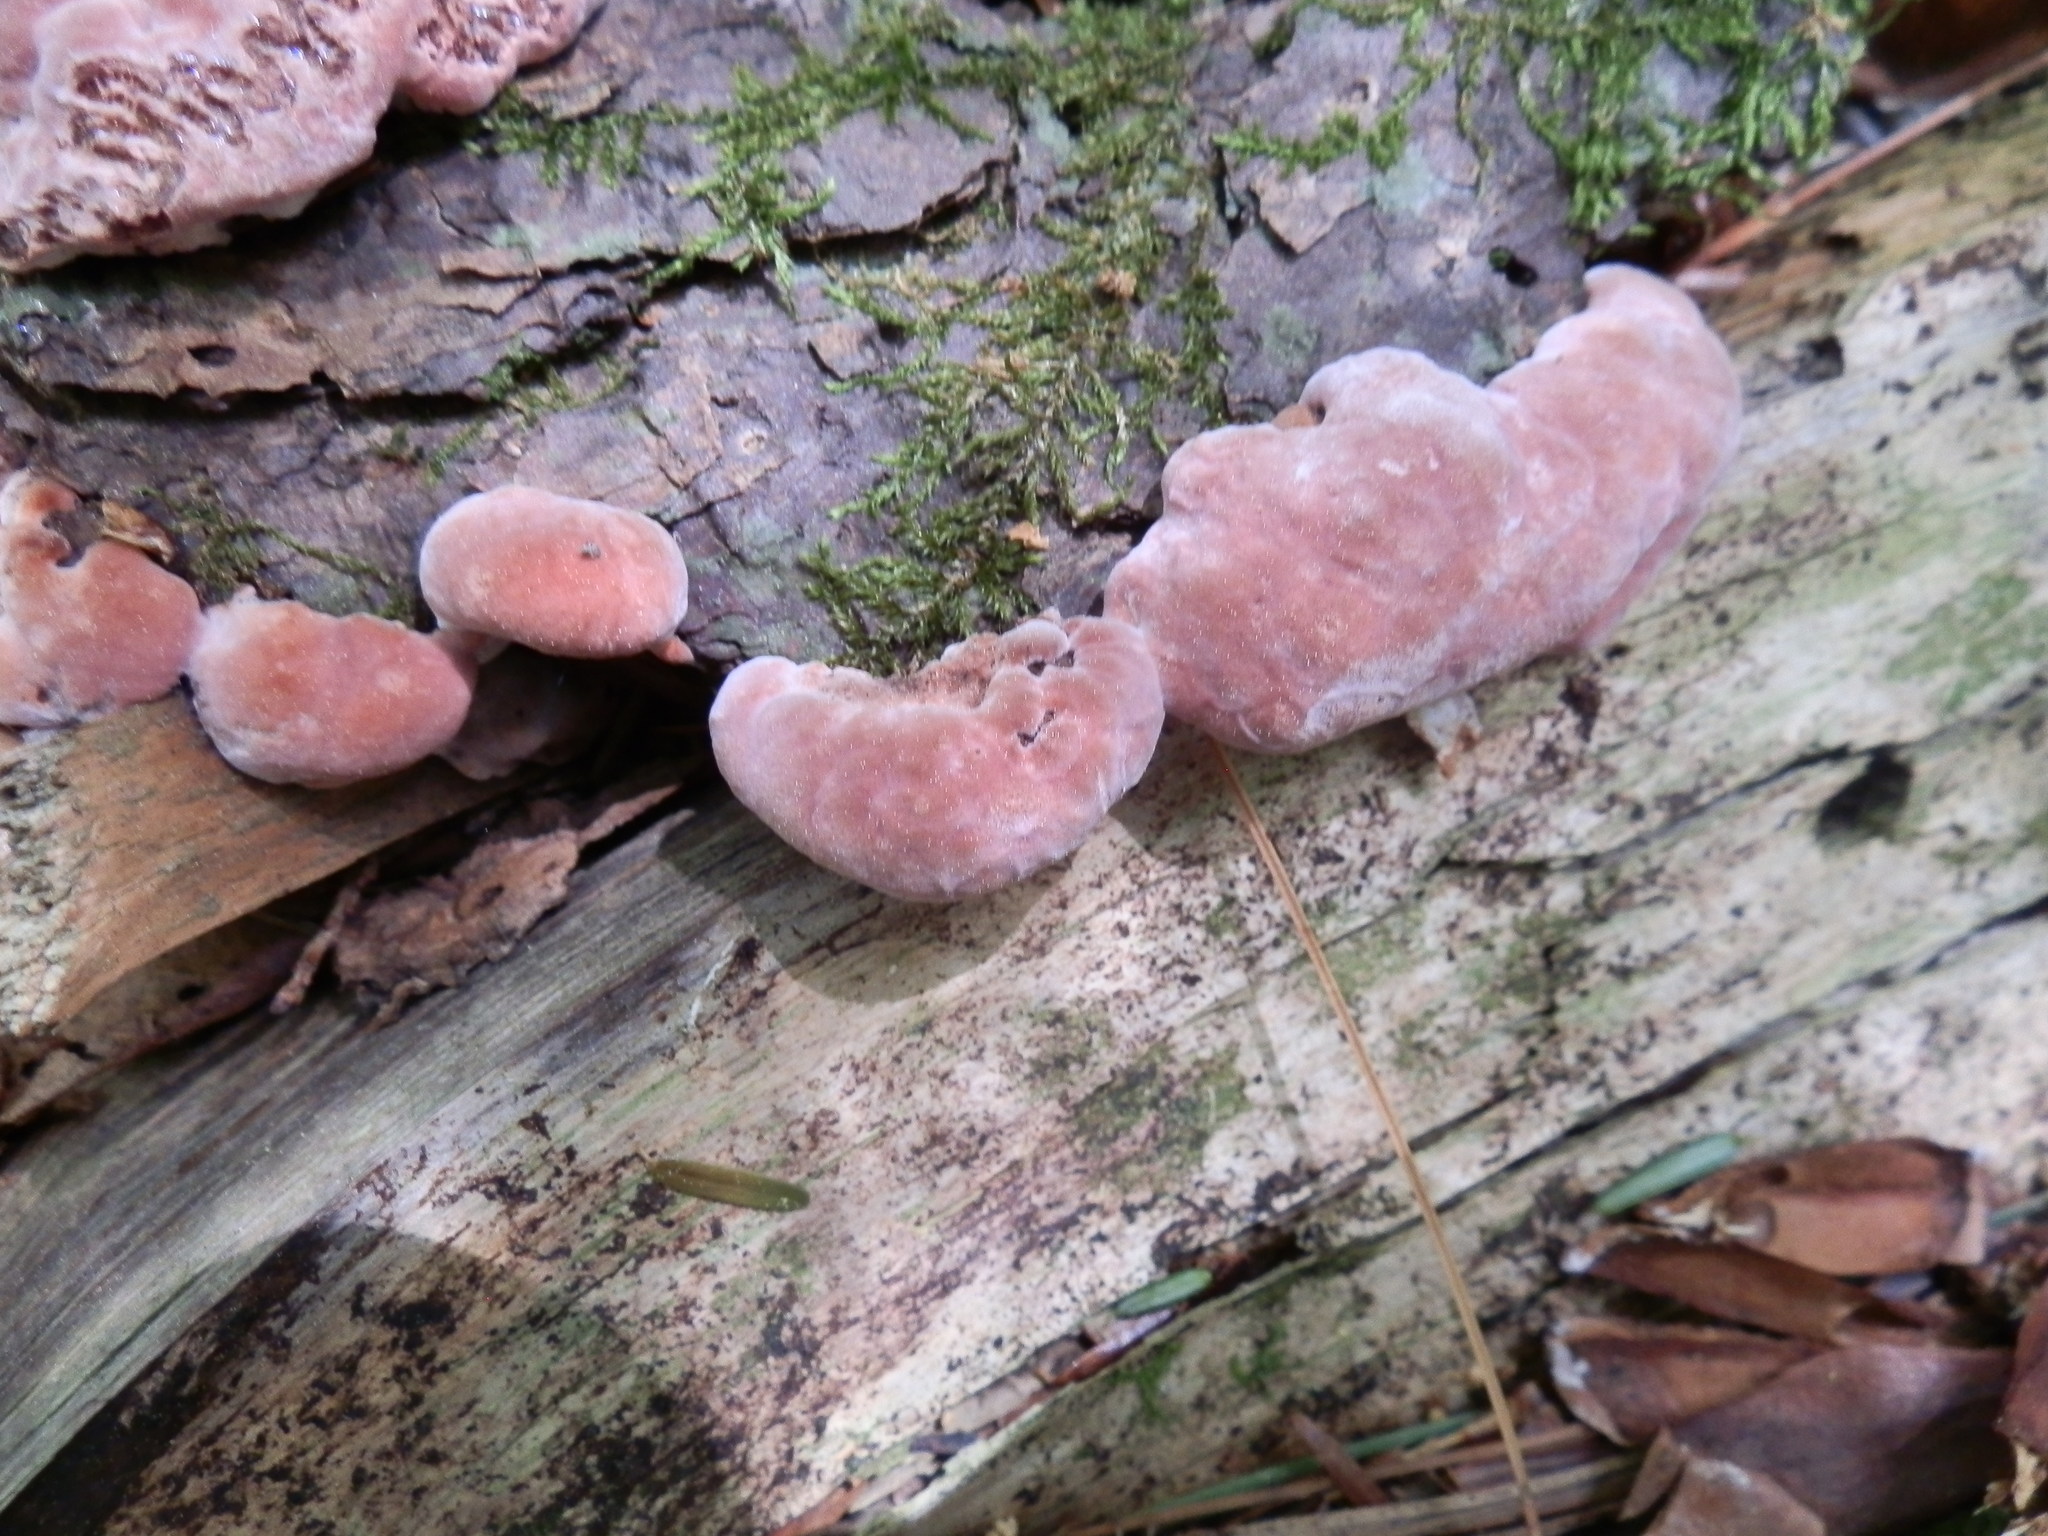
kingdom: Fungi
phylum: Basidiomycota
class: Agaricomycetes
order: Polyporales
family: Fomitopsidaceae
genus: Rhodofomes
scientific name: Rhodofomes cajanderi
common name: Rosy conk
